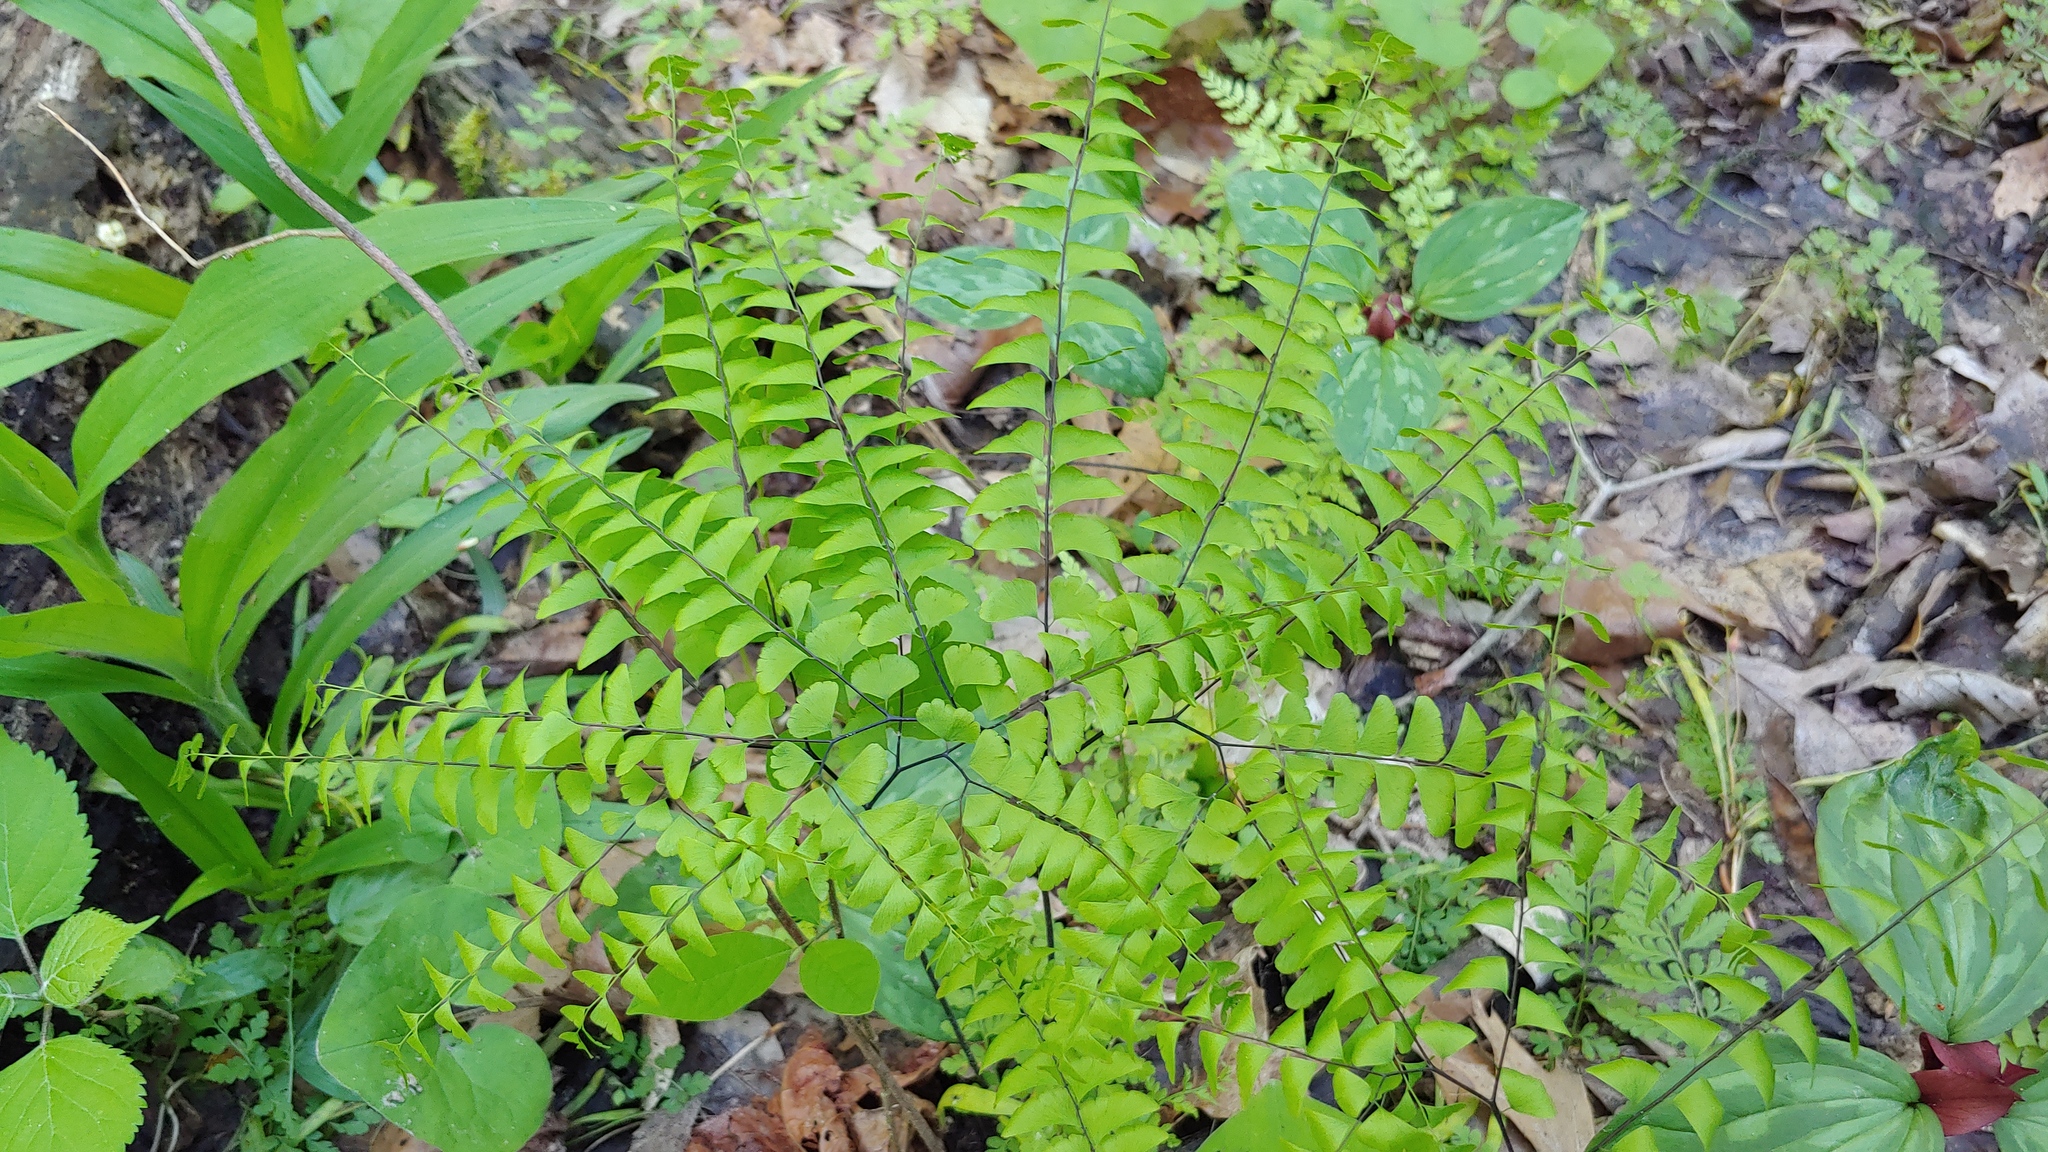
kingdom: Plantae
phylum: Tracheophyta
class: Polypodiopsida
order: Polypodiales
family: Pteridaceae
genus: Adiantum
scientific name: Adiantum pedatum
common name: Five-finger fern
